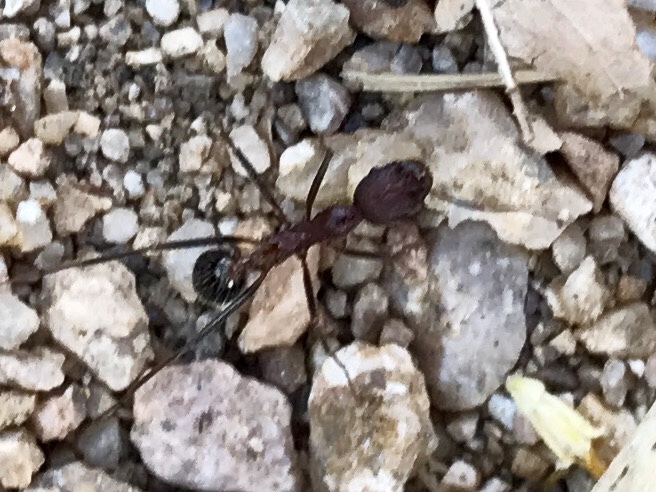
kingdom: Animalia
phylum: Arthropoda
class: Insecta
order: Hymenoptera
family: Formicidae
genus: Novomessor
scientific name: Novomessor albisetosa
